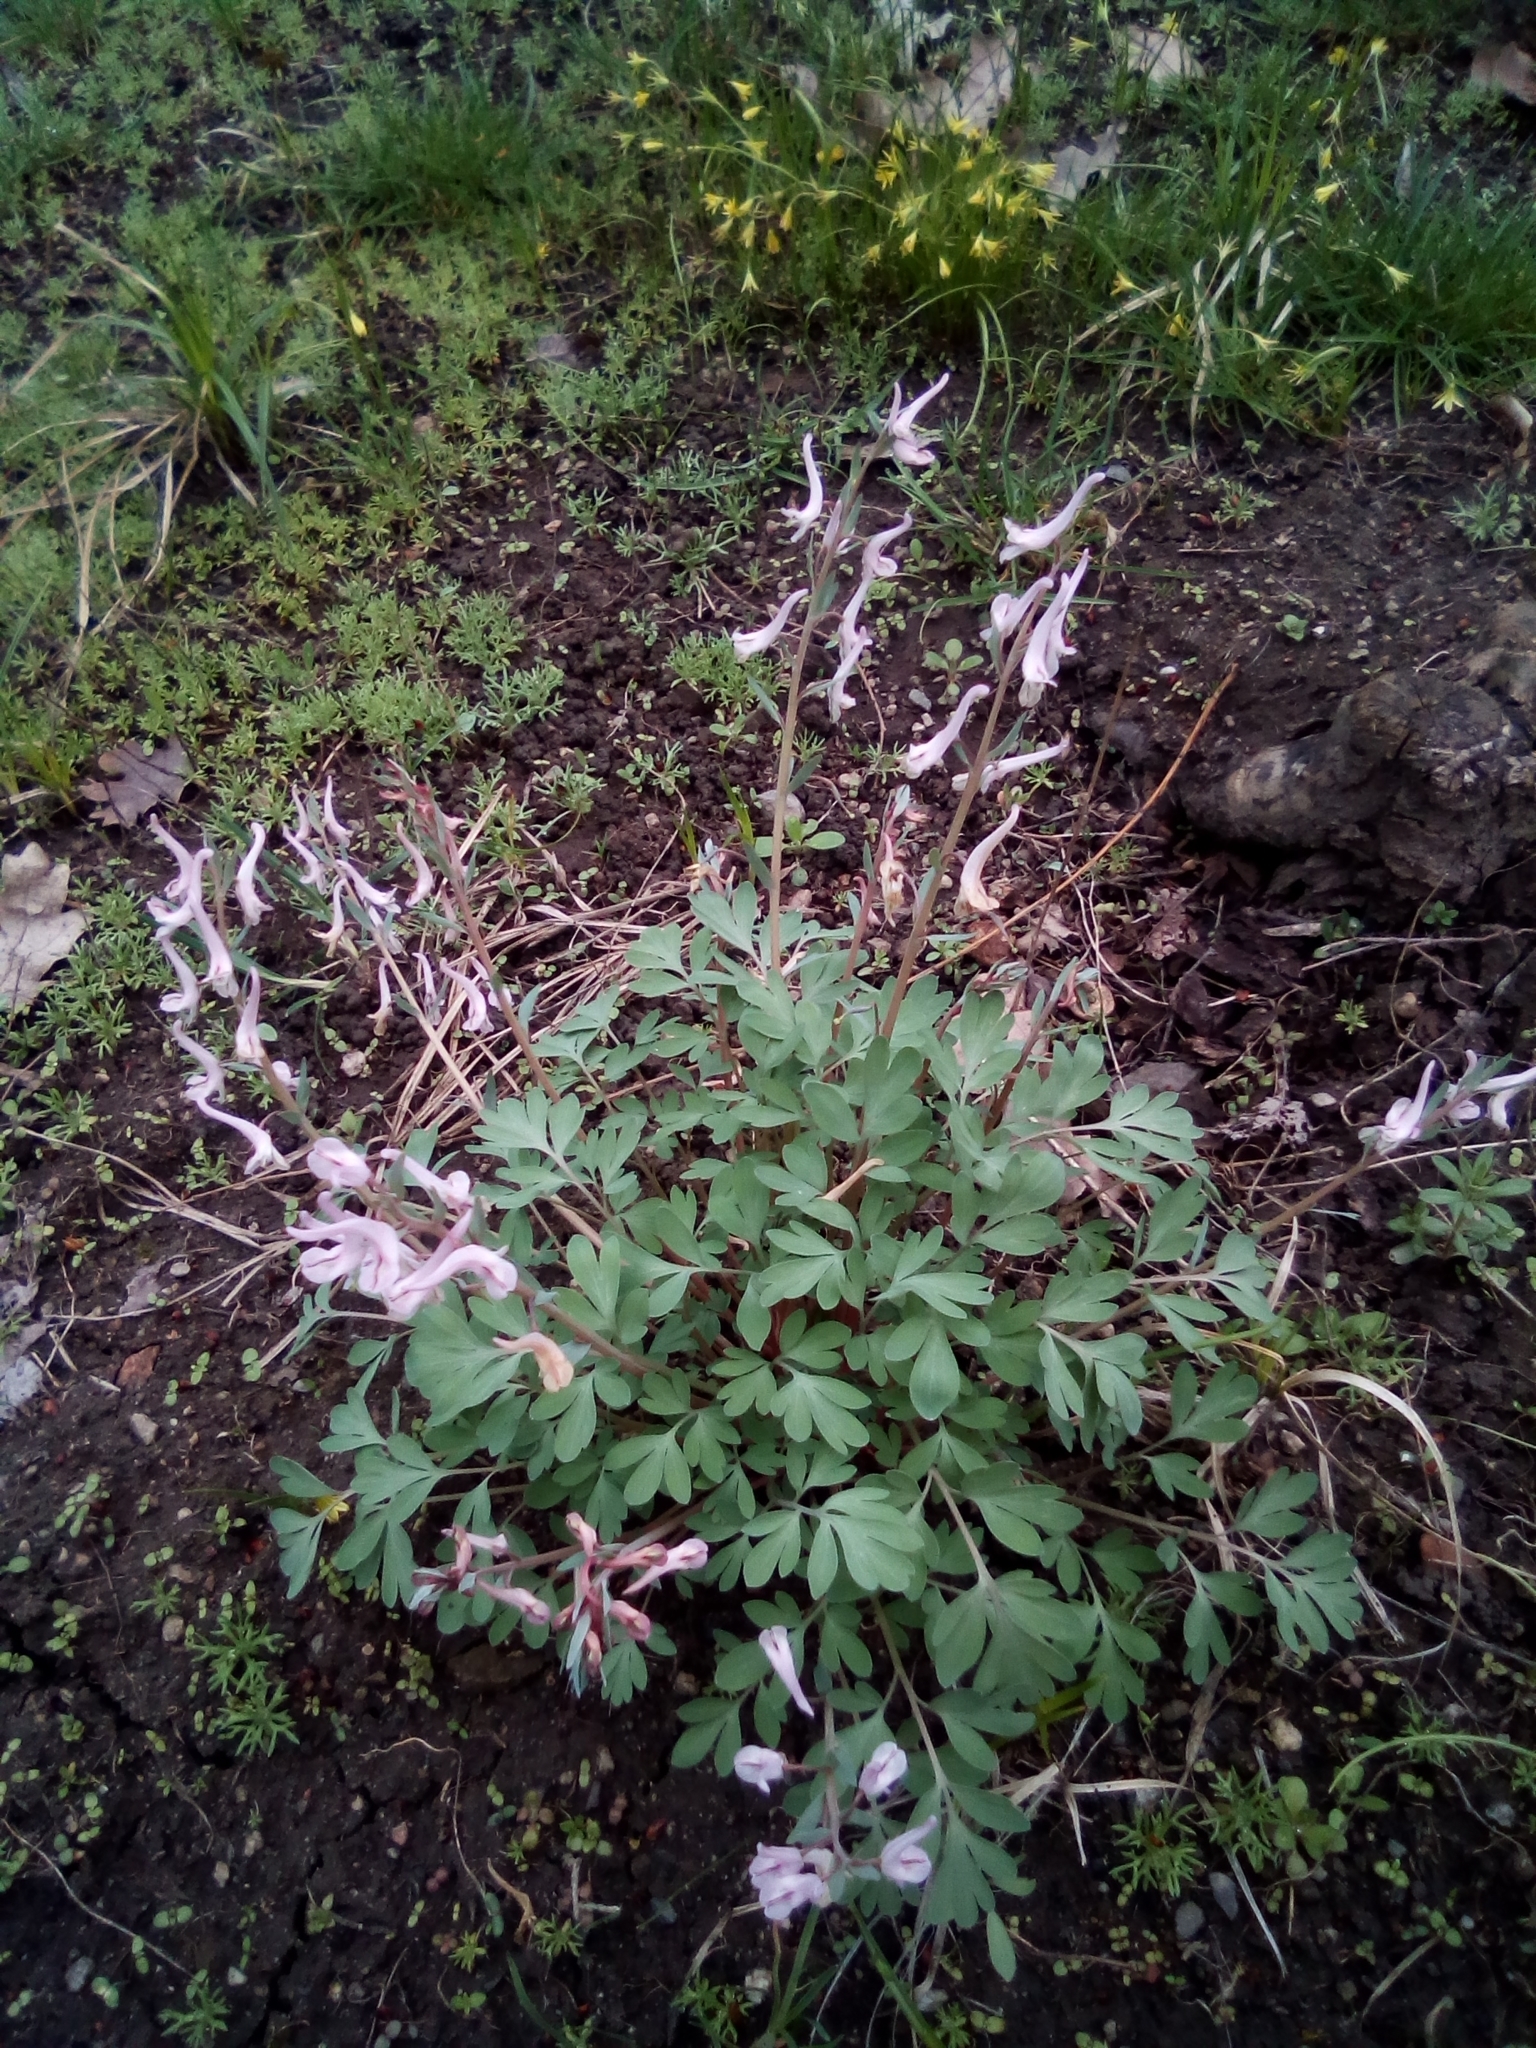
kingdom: Plantae
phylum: Tracheophyta
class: Magnoliopsida
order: Ranunculales
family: Papaveraceae
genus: Corydalis
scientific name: Corydalis glaucescens
